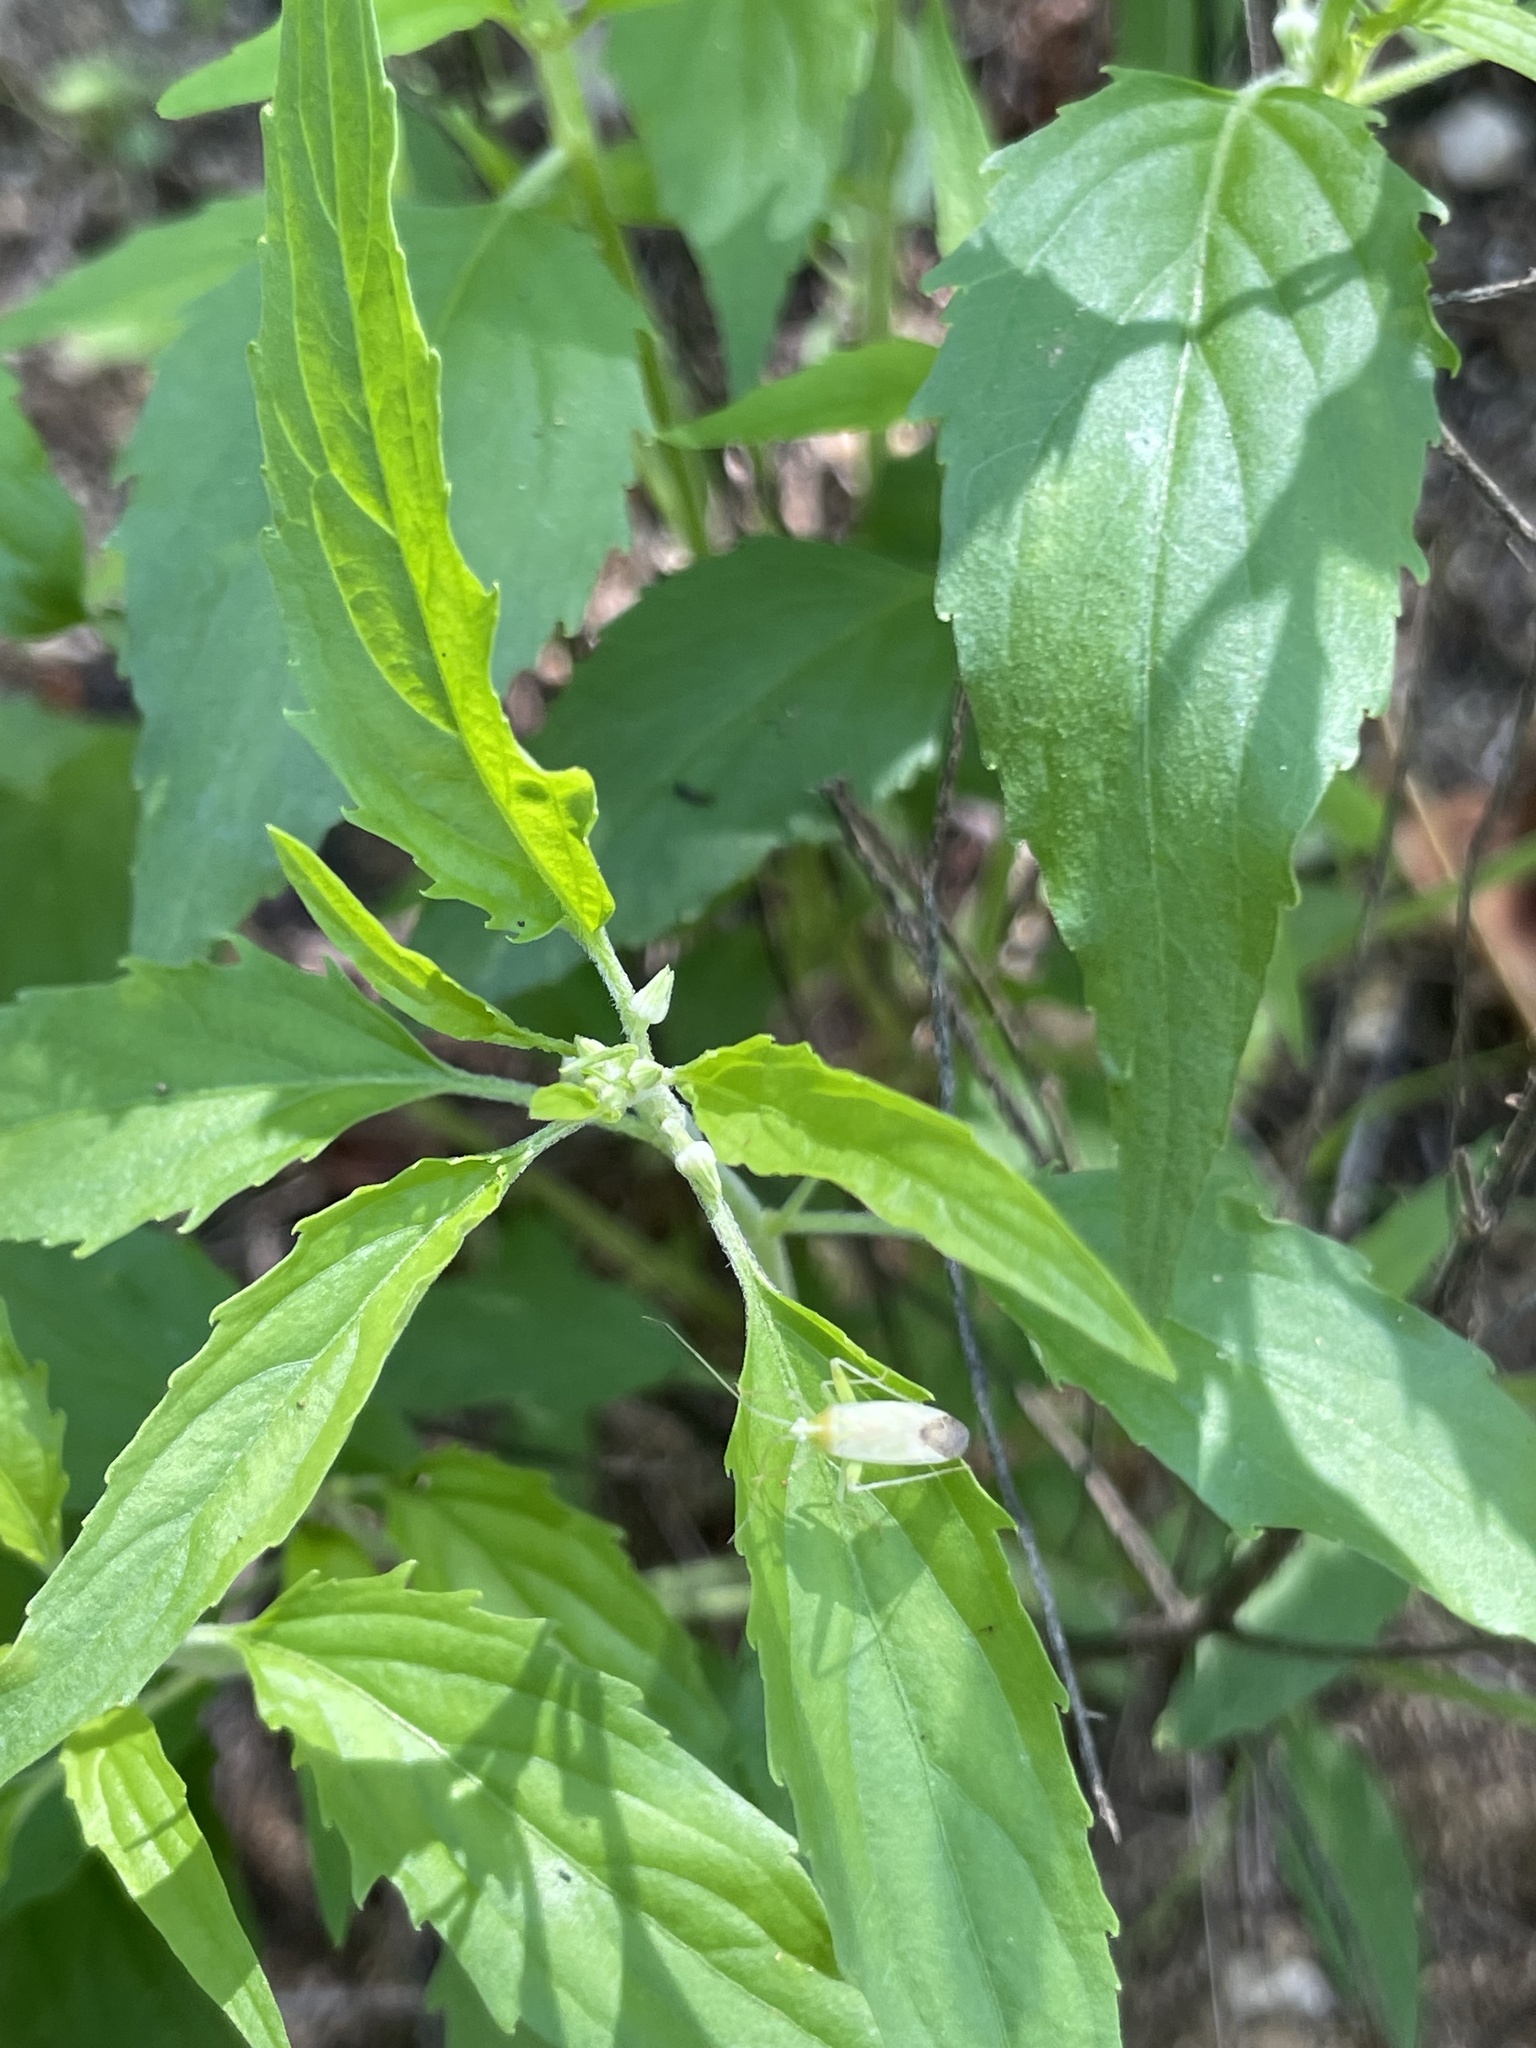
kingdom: Plantae
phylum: Tracheophyta
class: Magnoliopsida
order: Malpighiales
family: Violaceae
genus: Hybanthus
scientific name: Hybanthus fruticulosus
